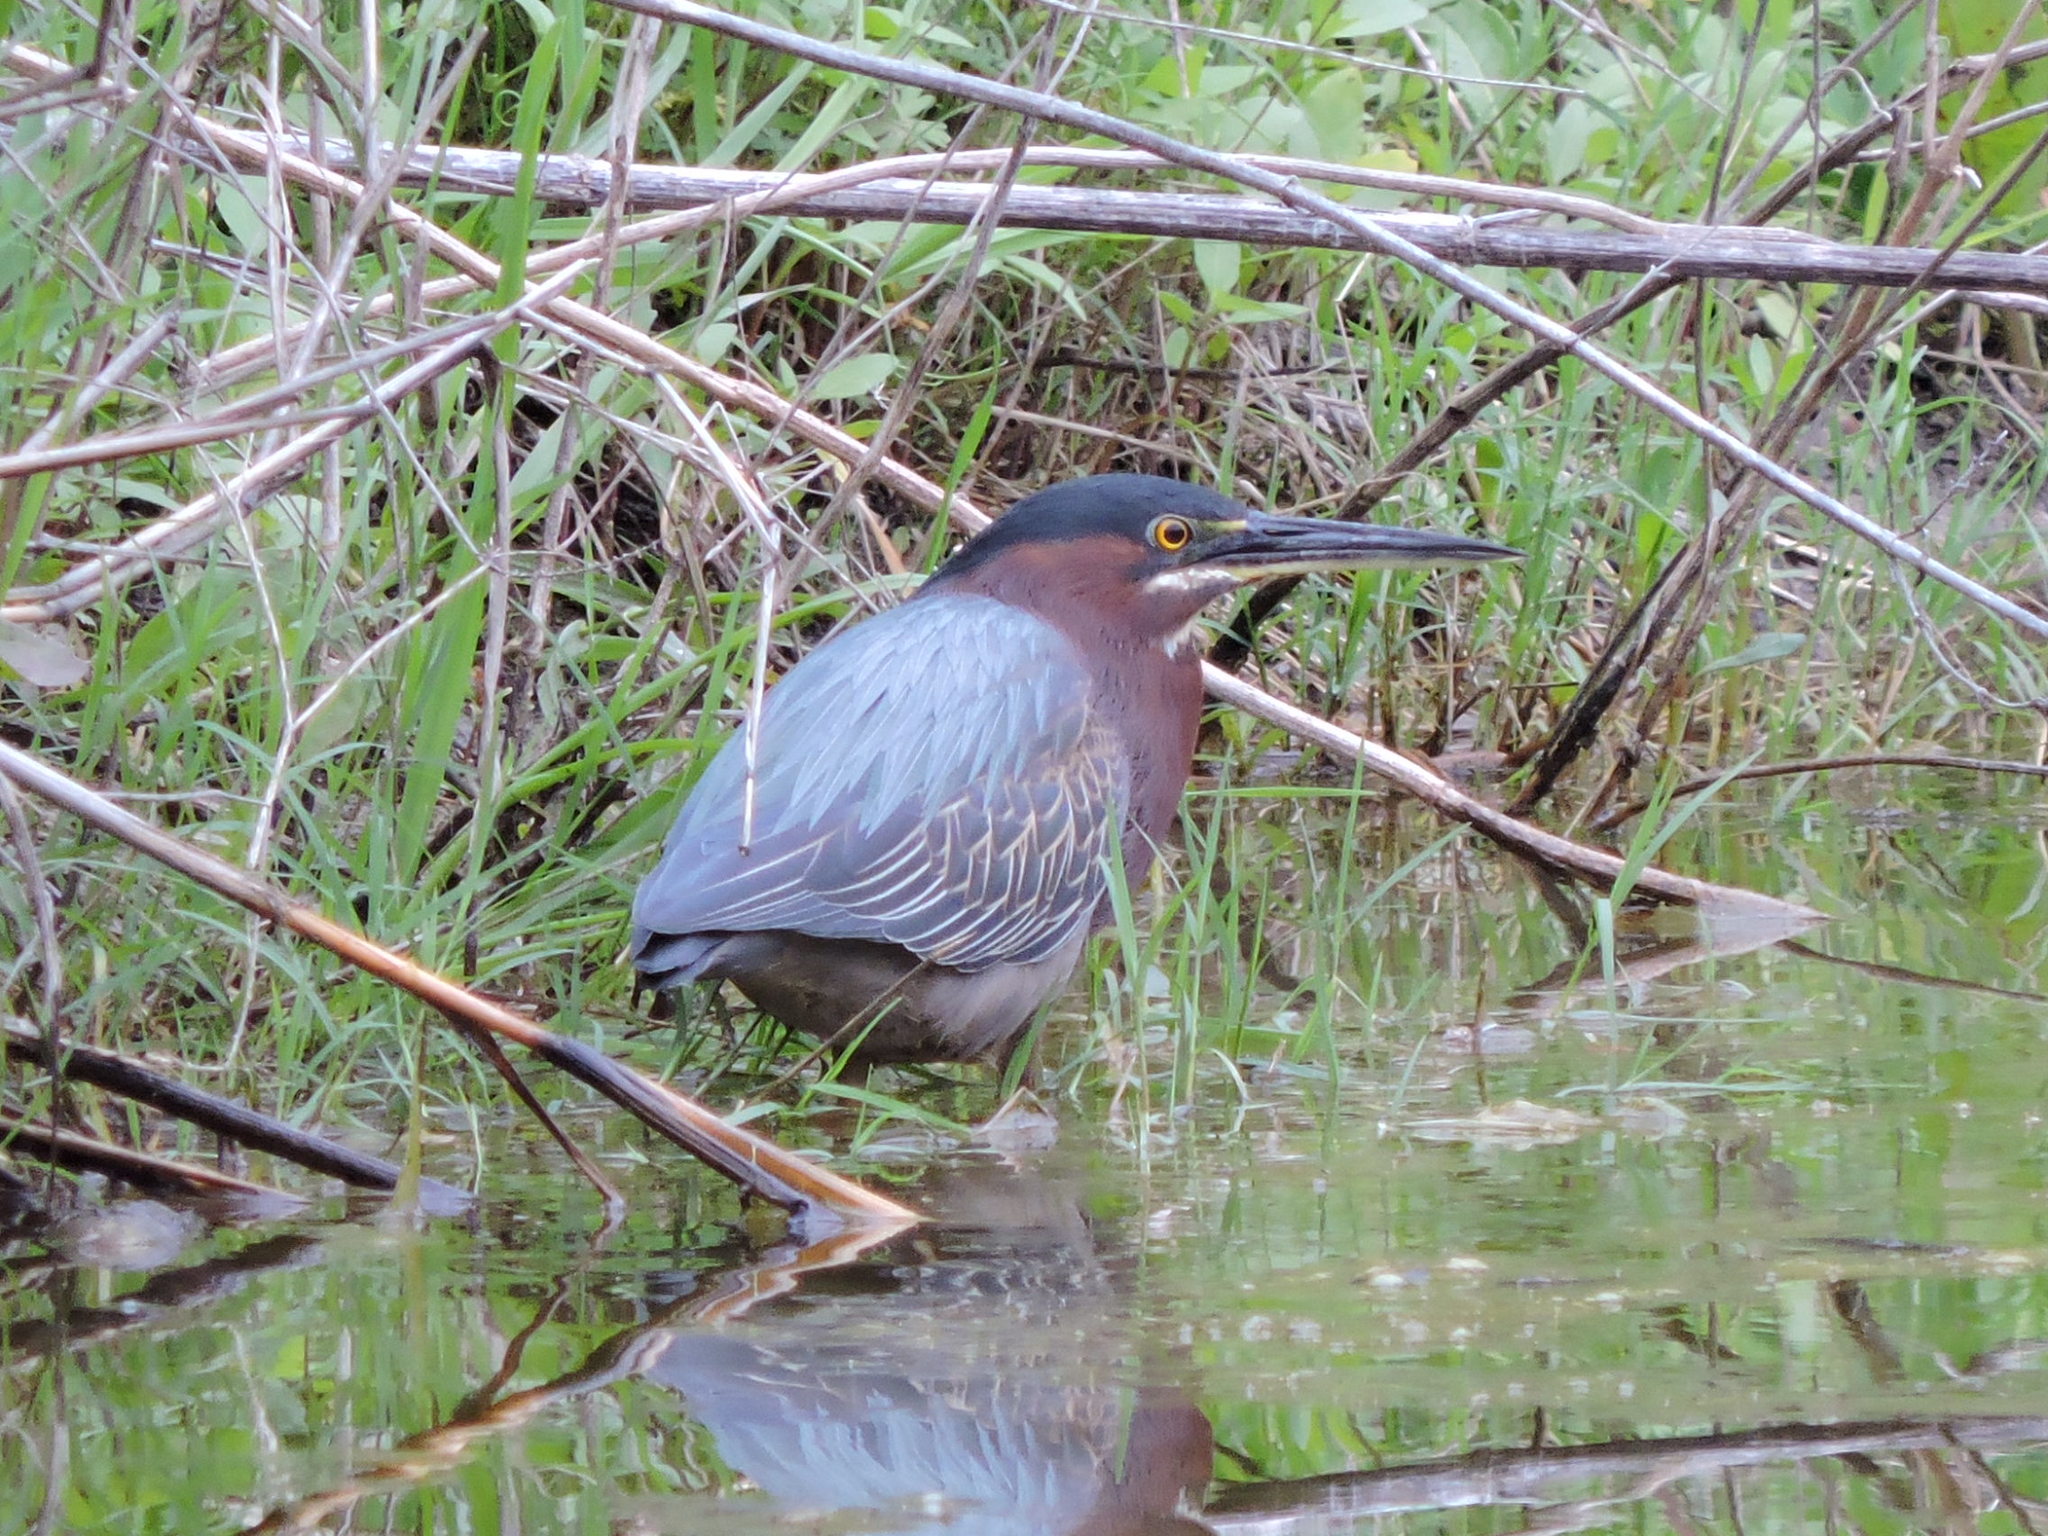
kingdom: Animalia
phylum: Chordata
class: Aves
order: Pelecaniformes
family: Ardeidae
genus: Butorides
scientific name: Butorides virescens
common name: Green heron
